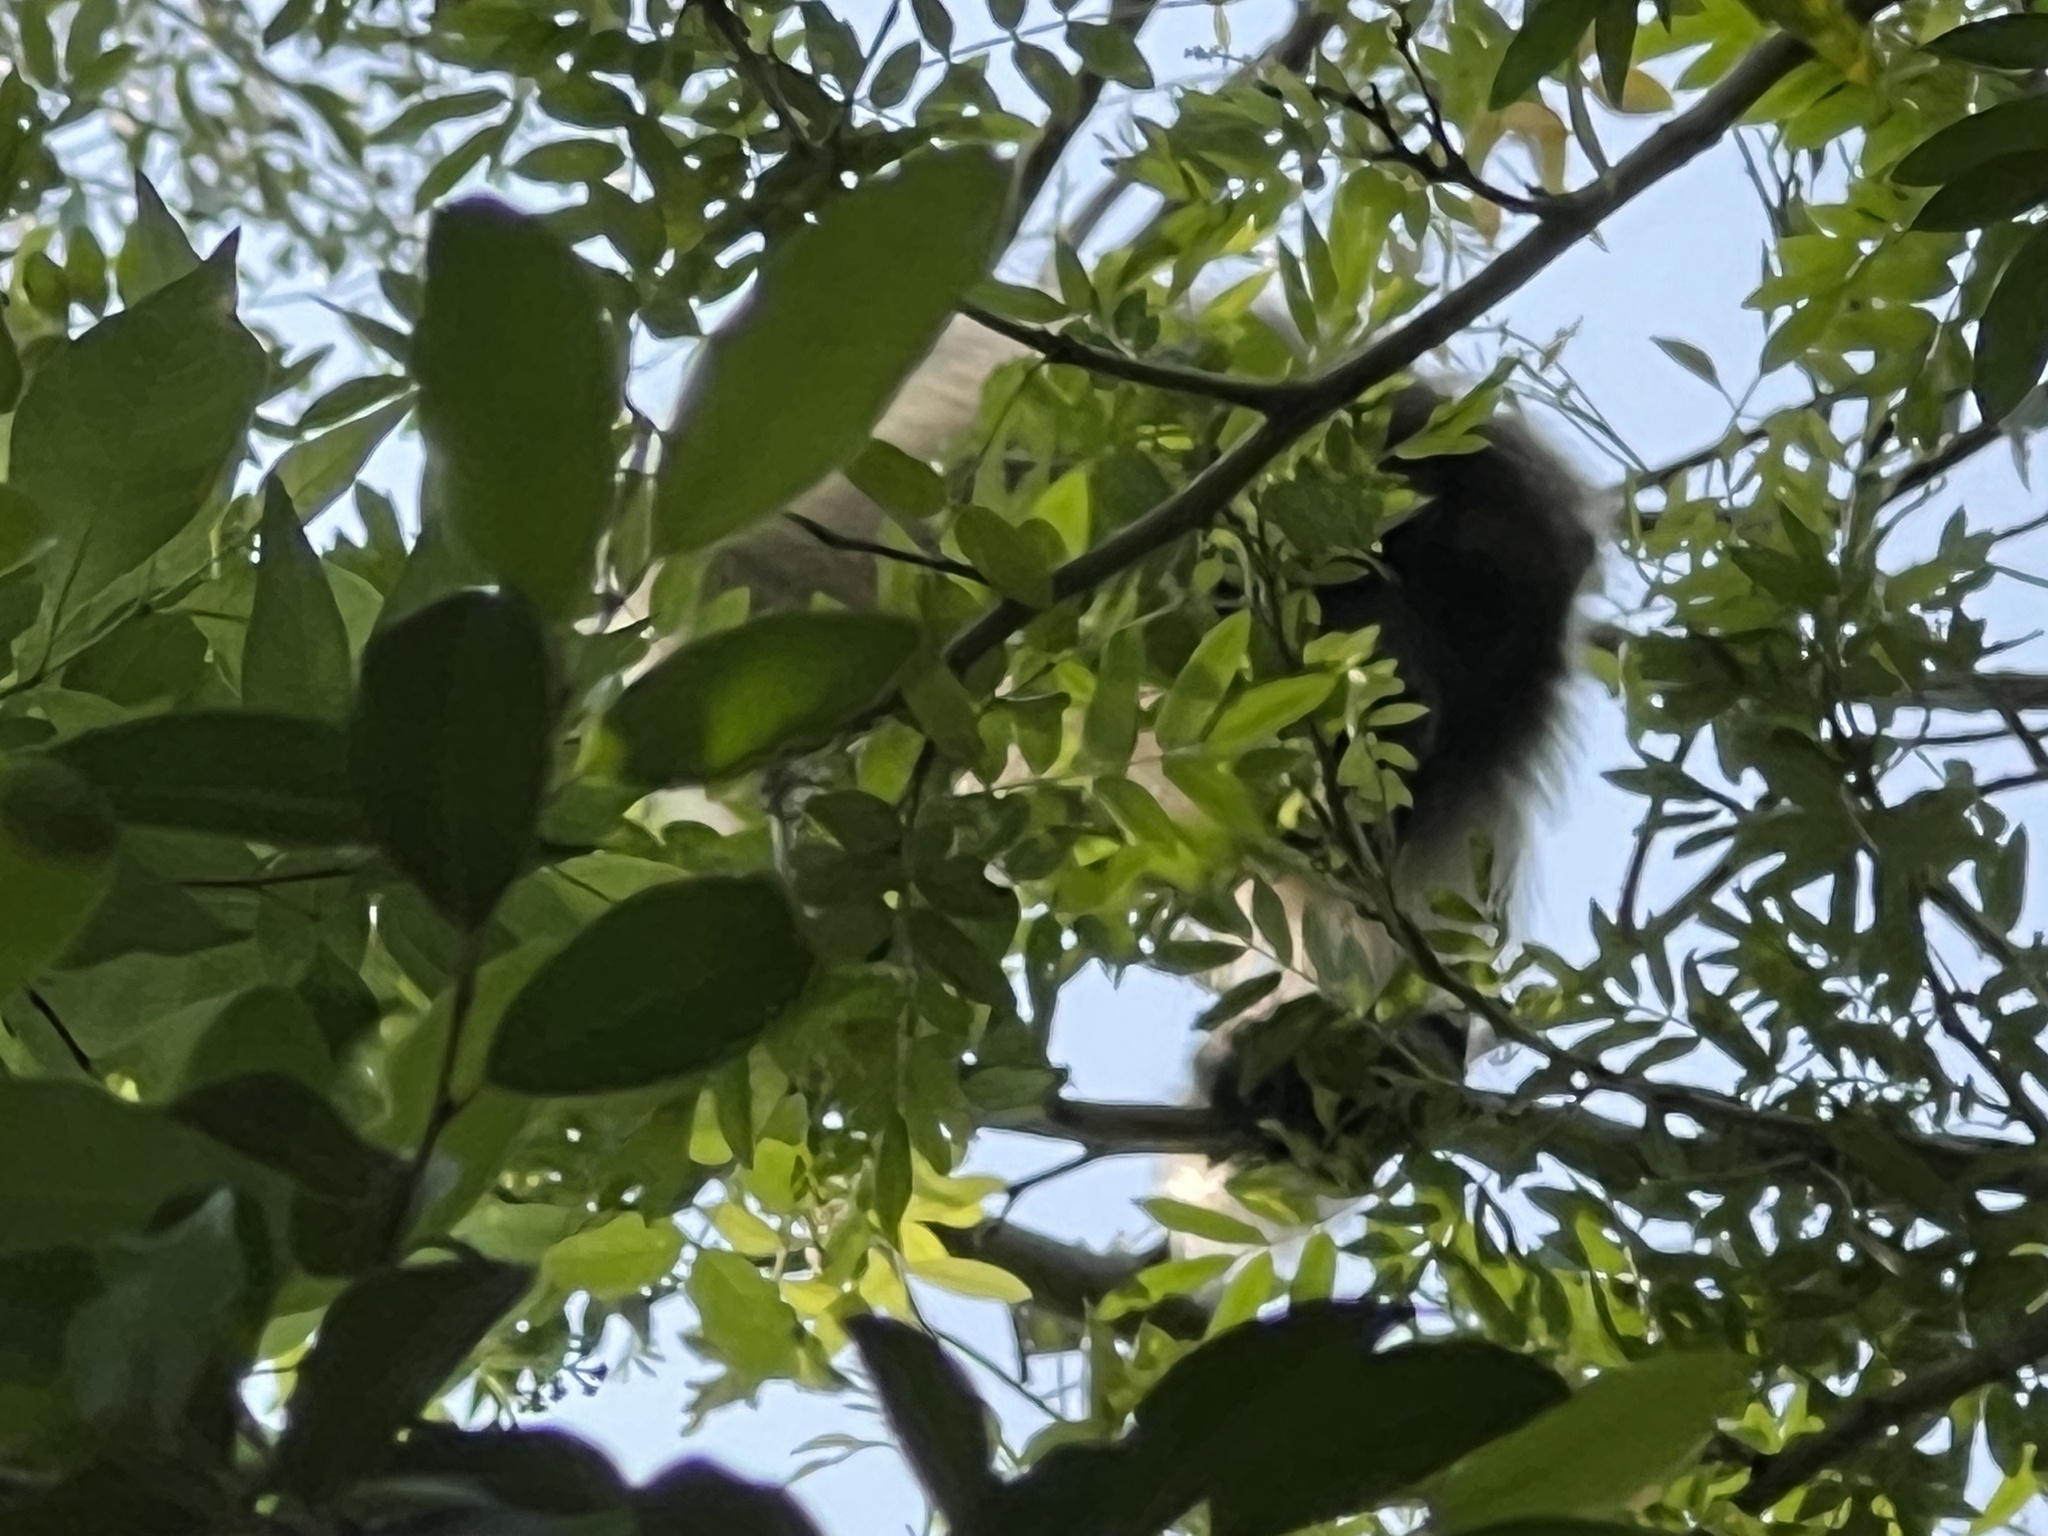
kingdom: Animalia
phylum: Chordata
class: Mammalia
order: Primates
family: Atelidae
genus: Alouatta
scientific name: Alouatta caraya
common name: Black howler
